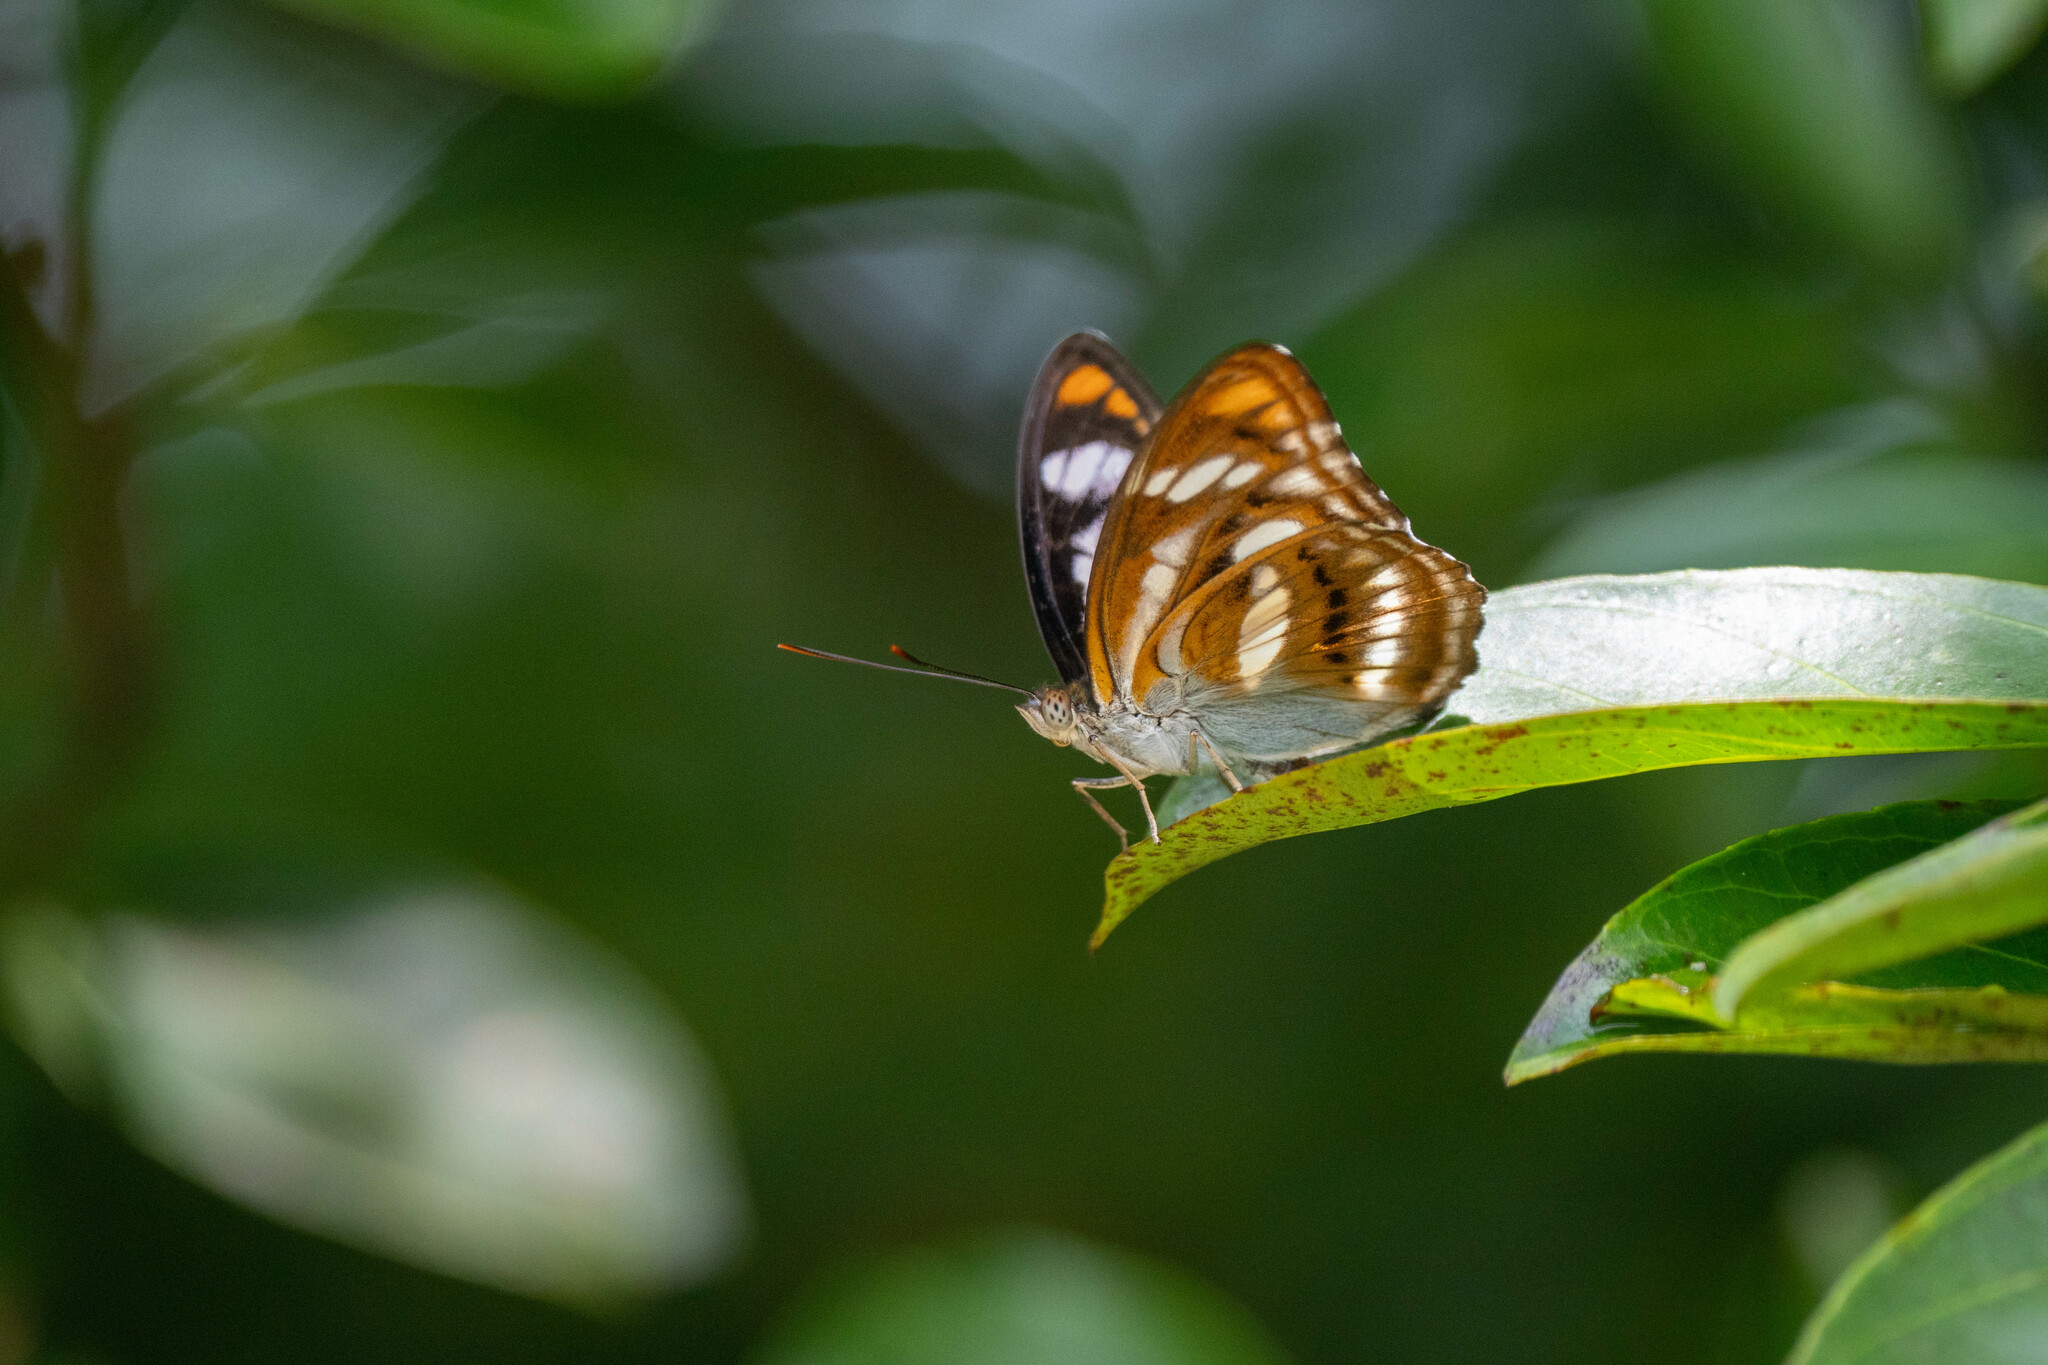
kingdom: Animalia
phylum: Arthropoda
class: Insecta
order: Lepidoptera
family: Nymphalidae
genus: Parathyma
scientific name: Parathyma nefte
